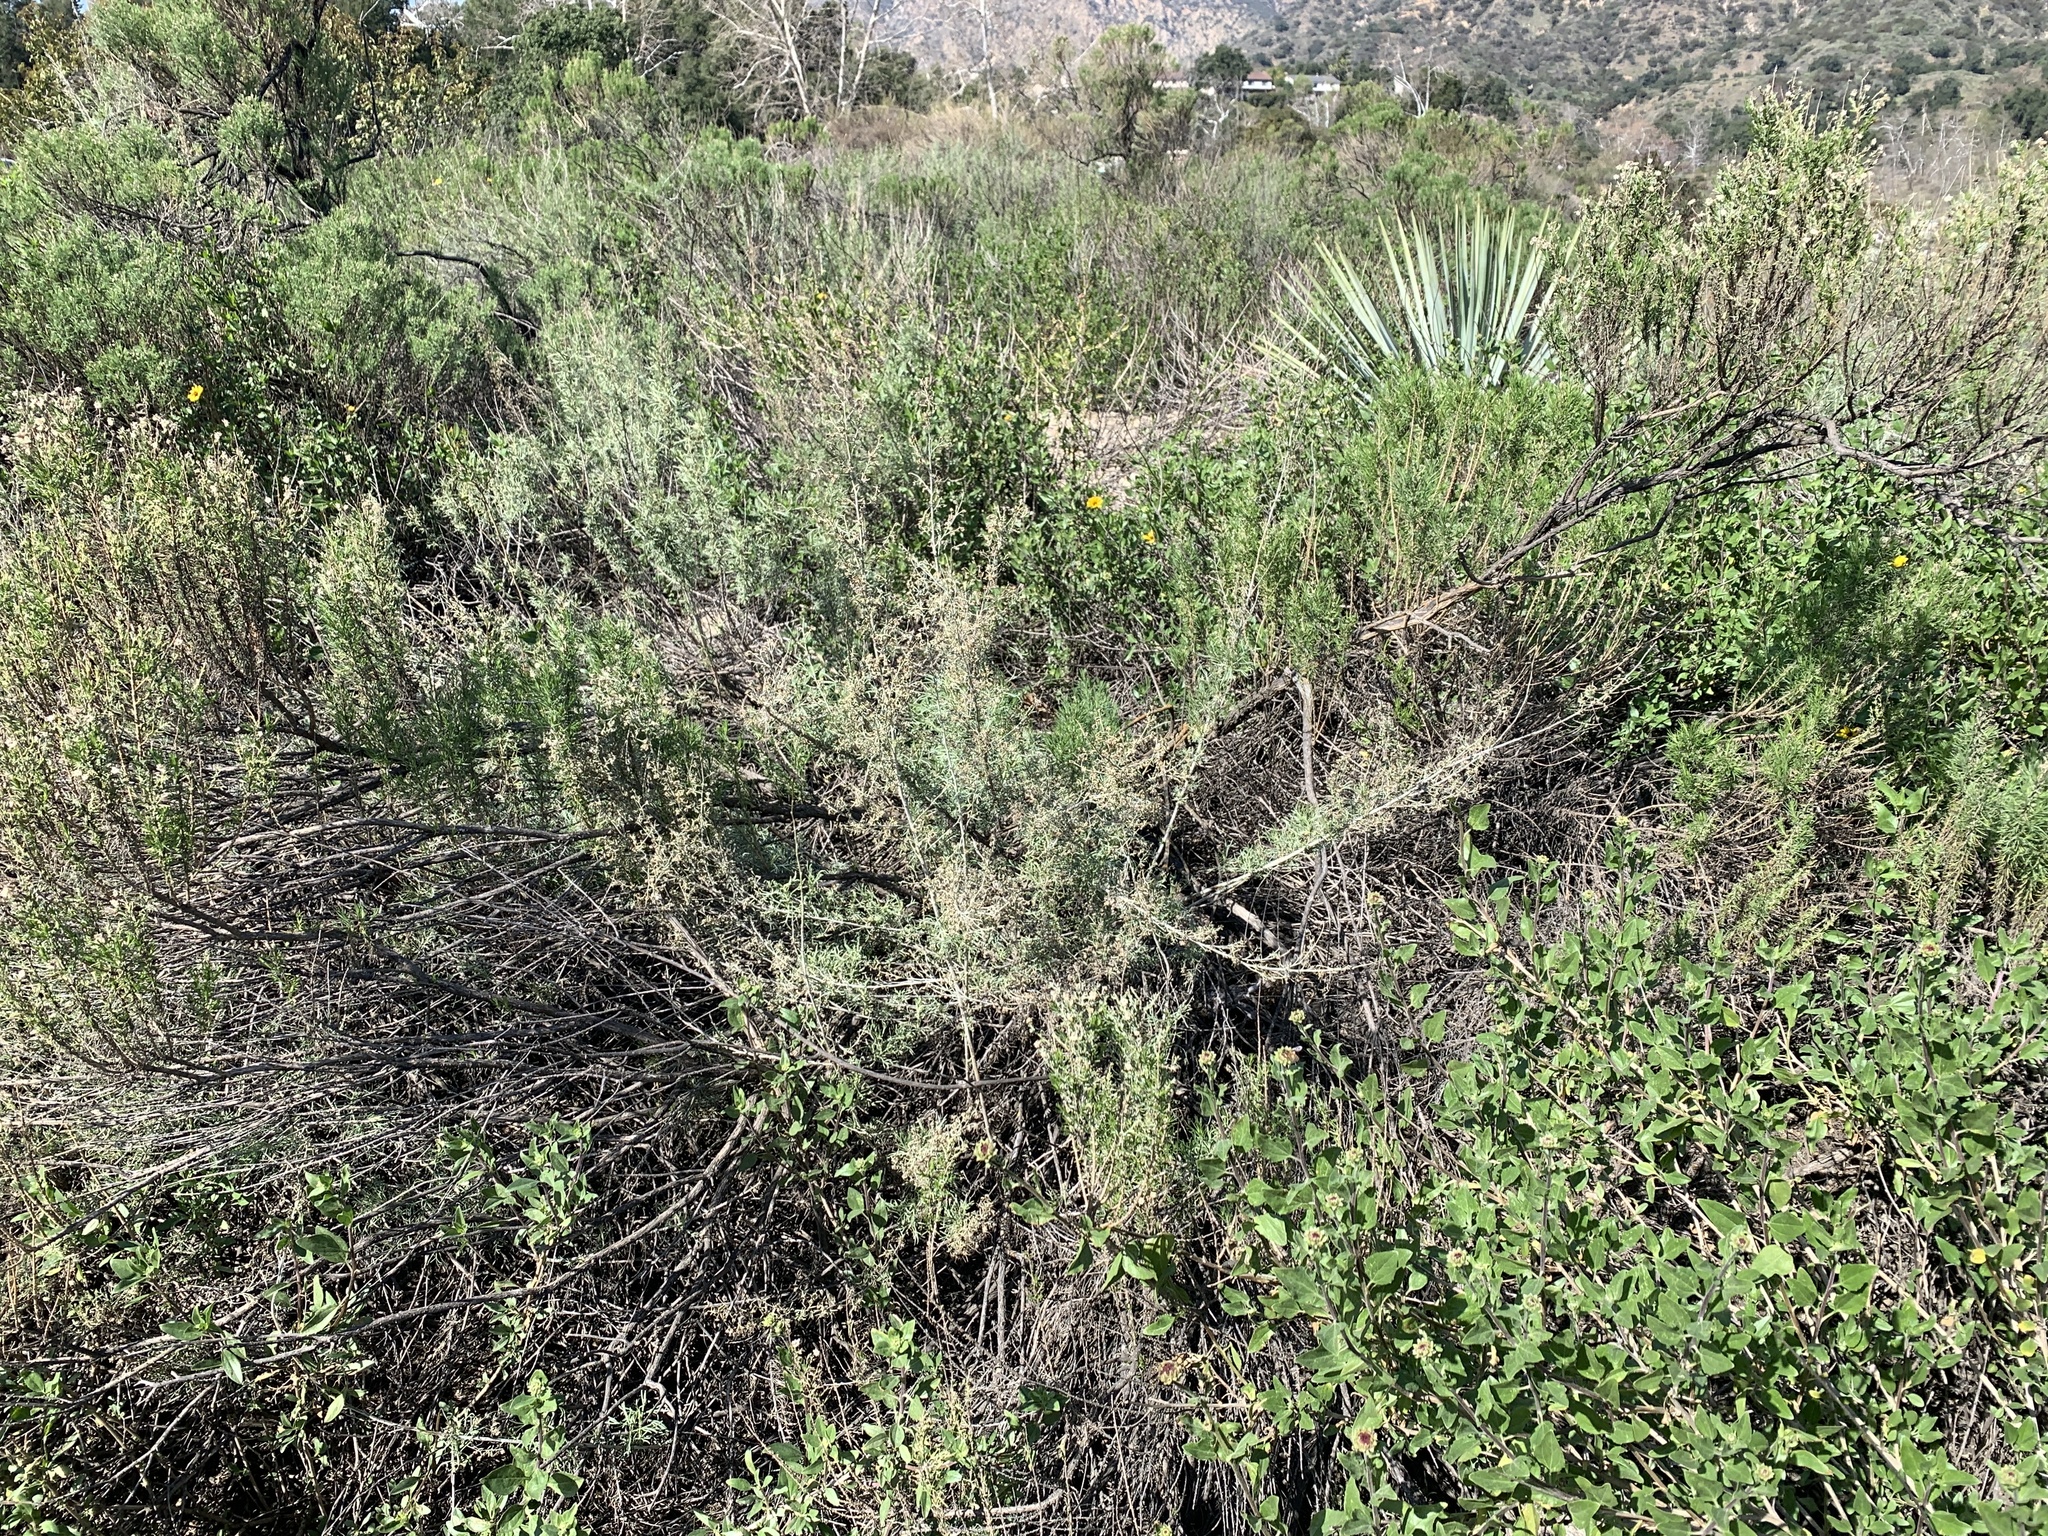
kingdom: Plantae
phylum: Tracheophyta
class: Magnoliopsida
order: Asterales
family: Asteraceae
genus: Artemisia
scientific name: Artemisia californica
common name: California sagebrush
